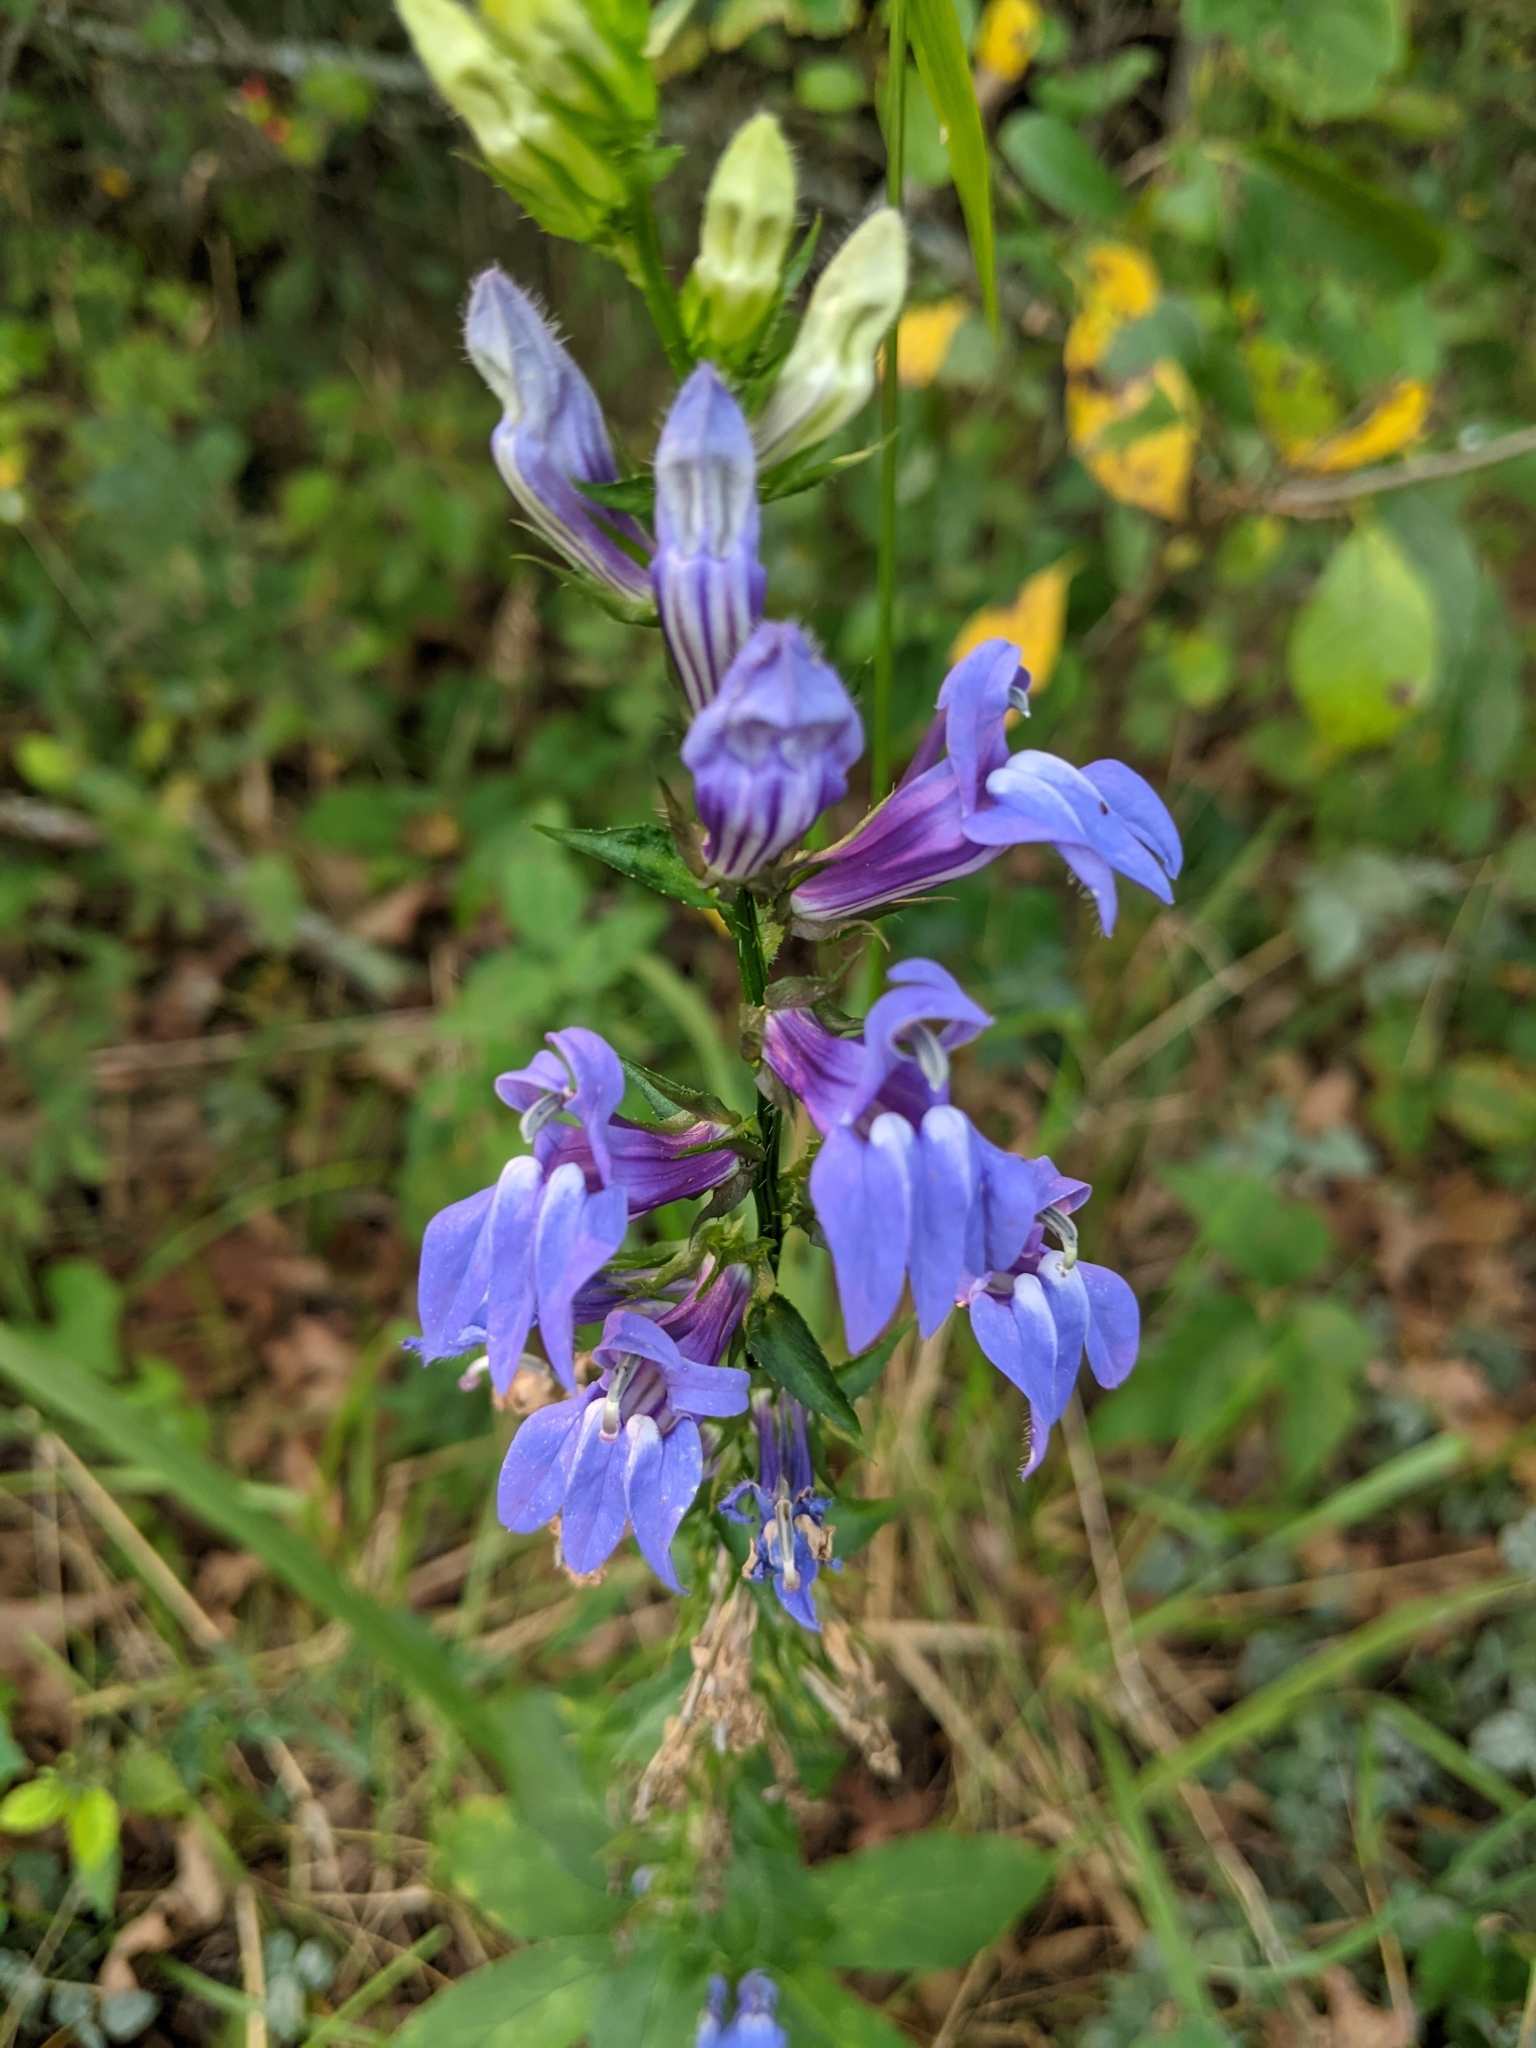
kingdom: Plantae
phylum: Tracheophyta
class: Magnoliopsida
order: Asterales
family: Campanulaceae
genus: Lobelia
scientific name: Lobelia siphilitica
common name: Great lobelia
